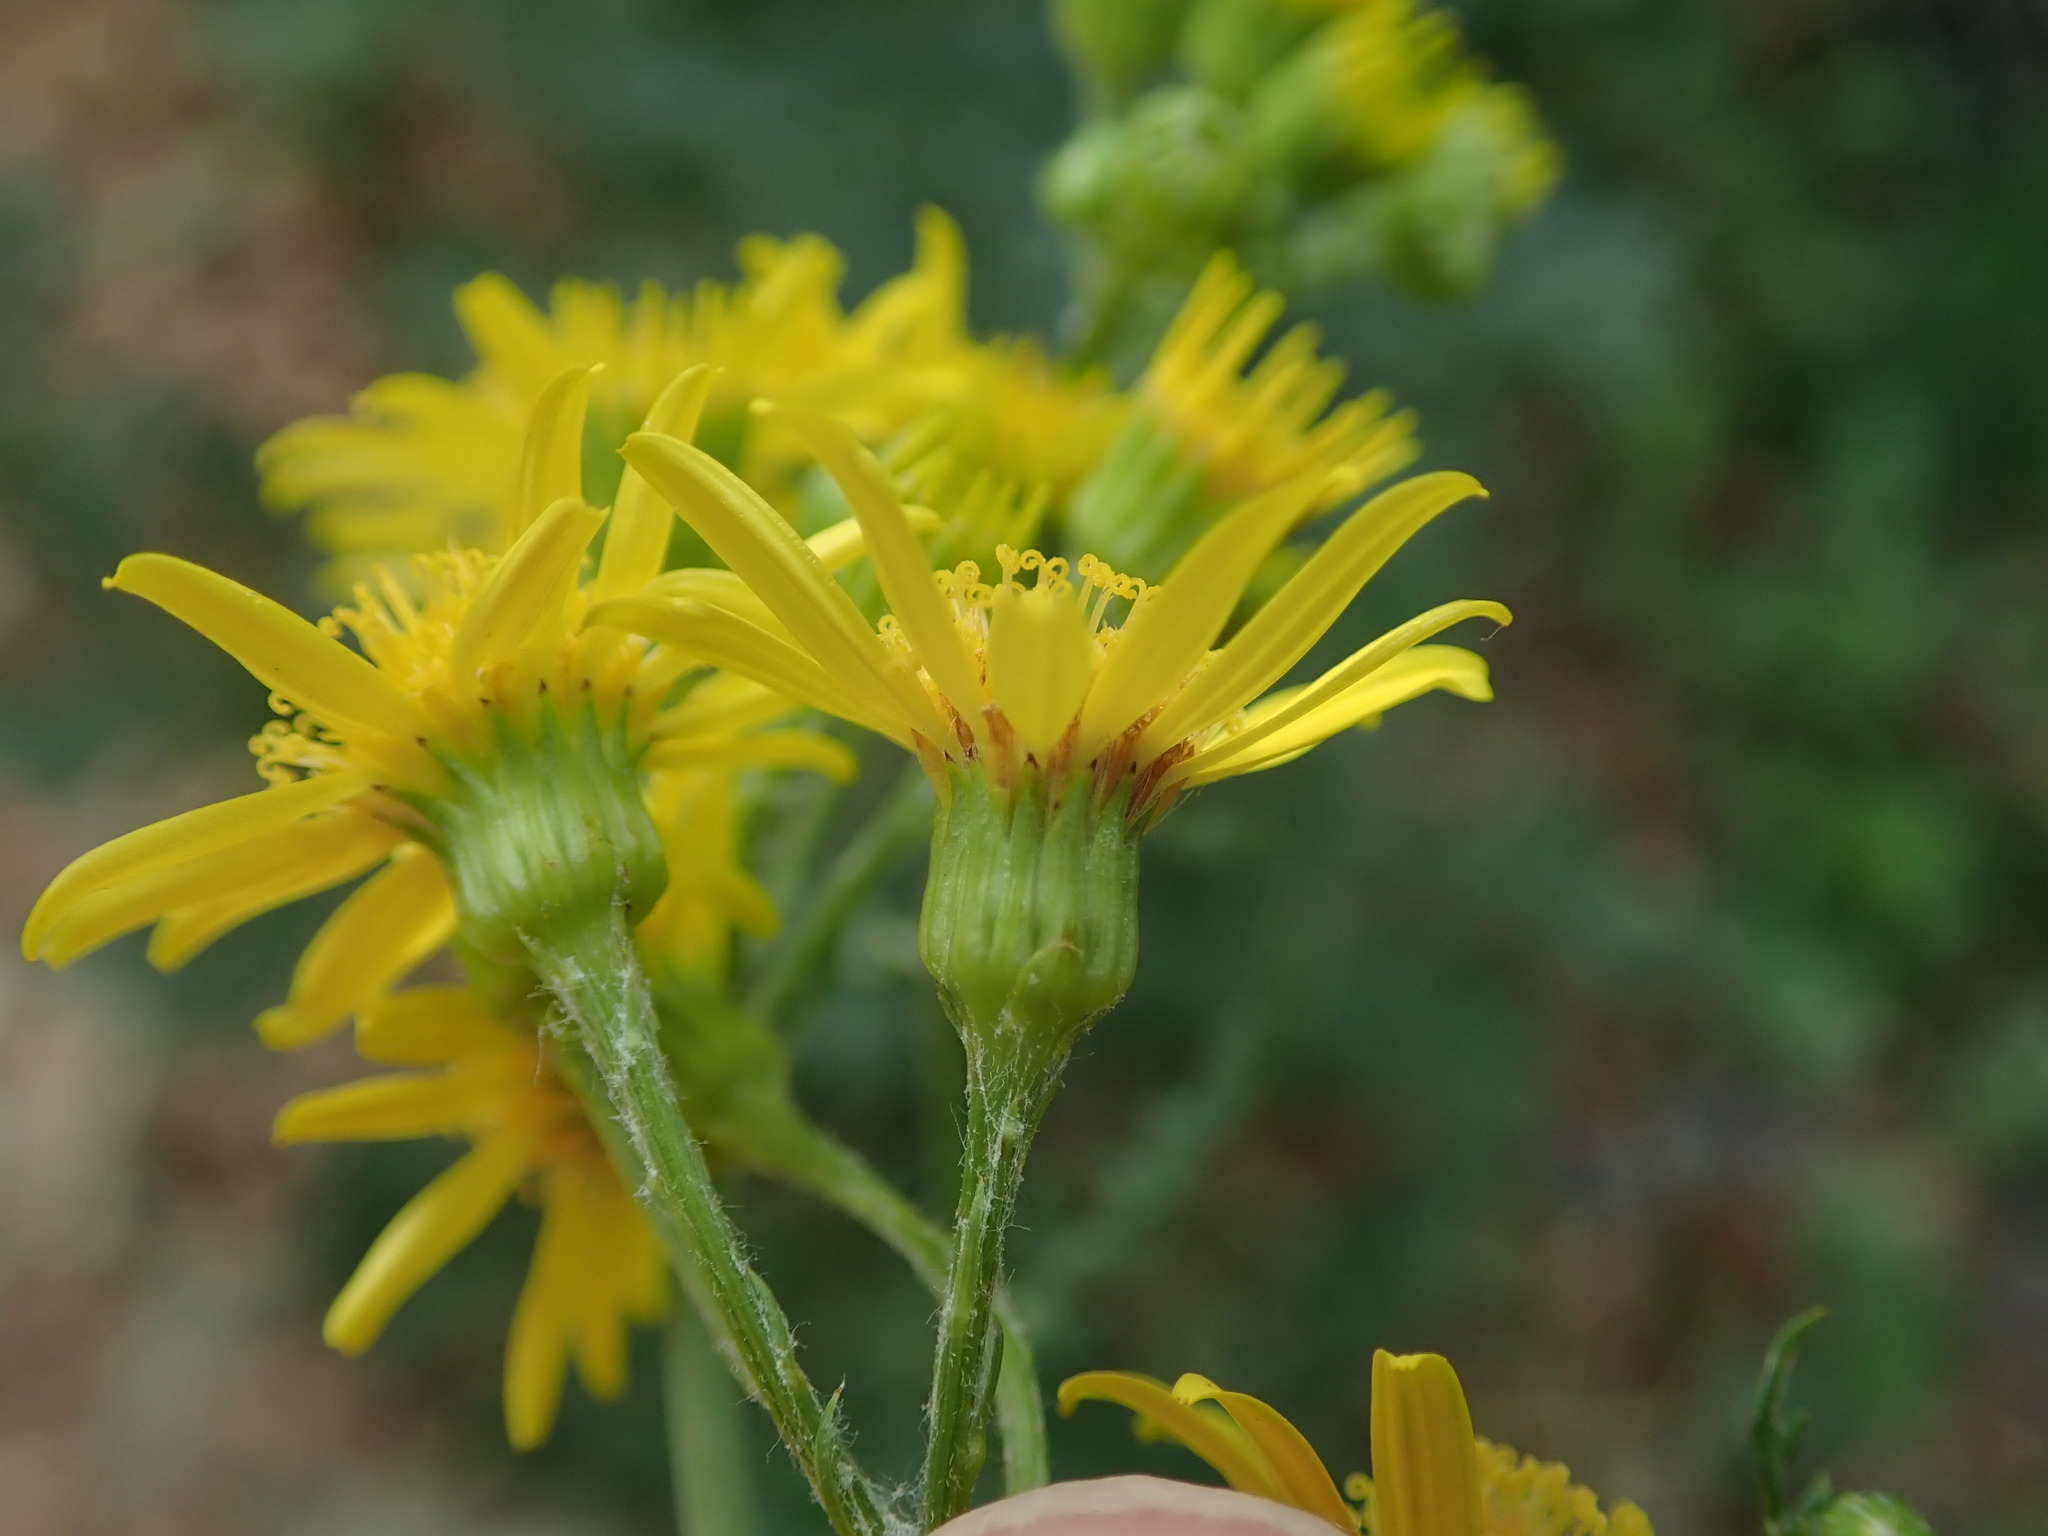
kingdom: Plantae
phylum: Tracheophyta
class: Magnoliopsida
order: Asterales
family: Asteraceae
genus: Jacobaea
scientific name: Jacobaea vulgaris
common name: Stinking willie
